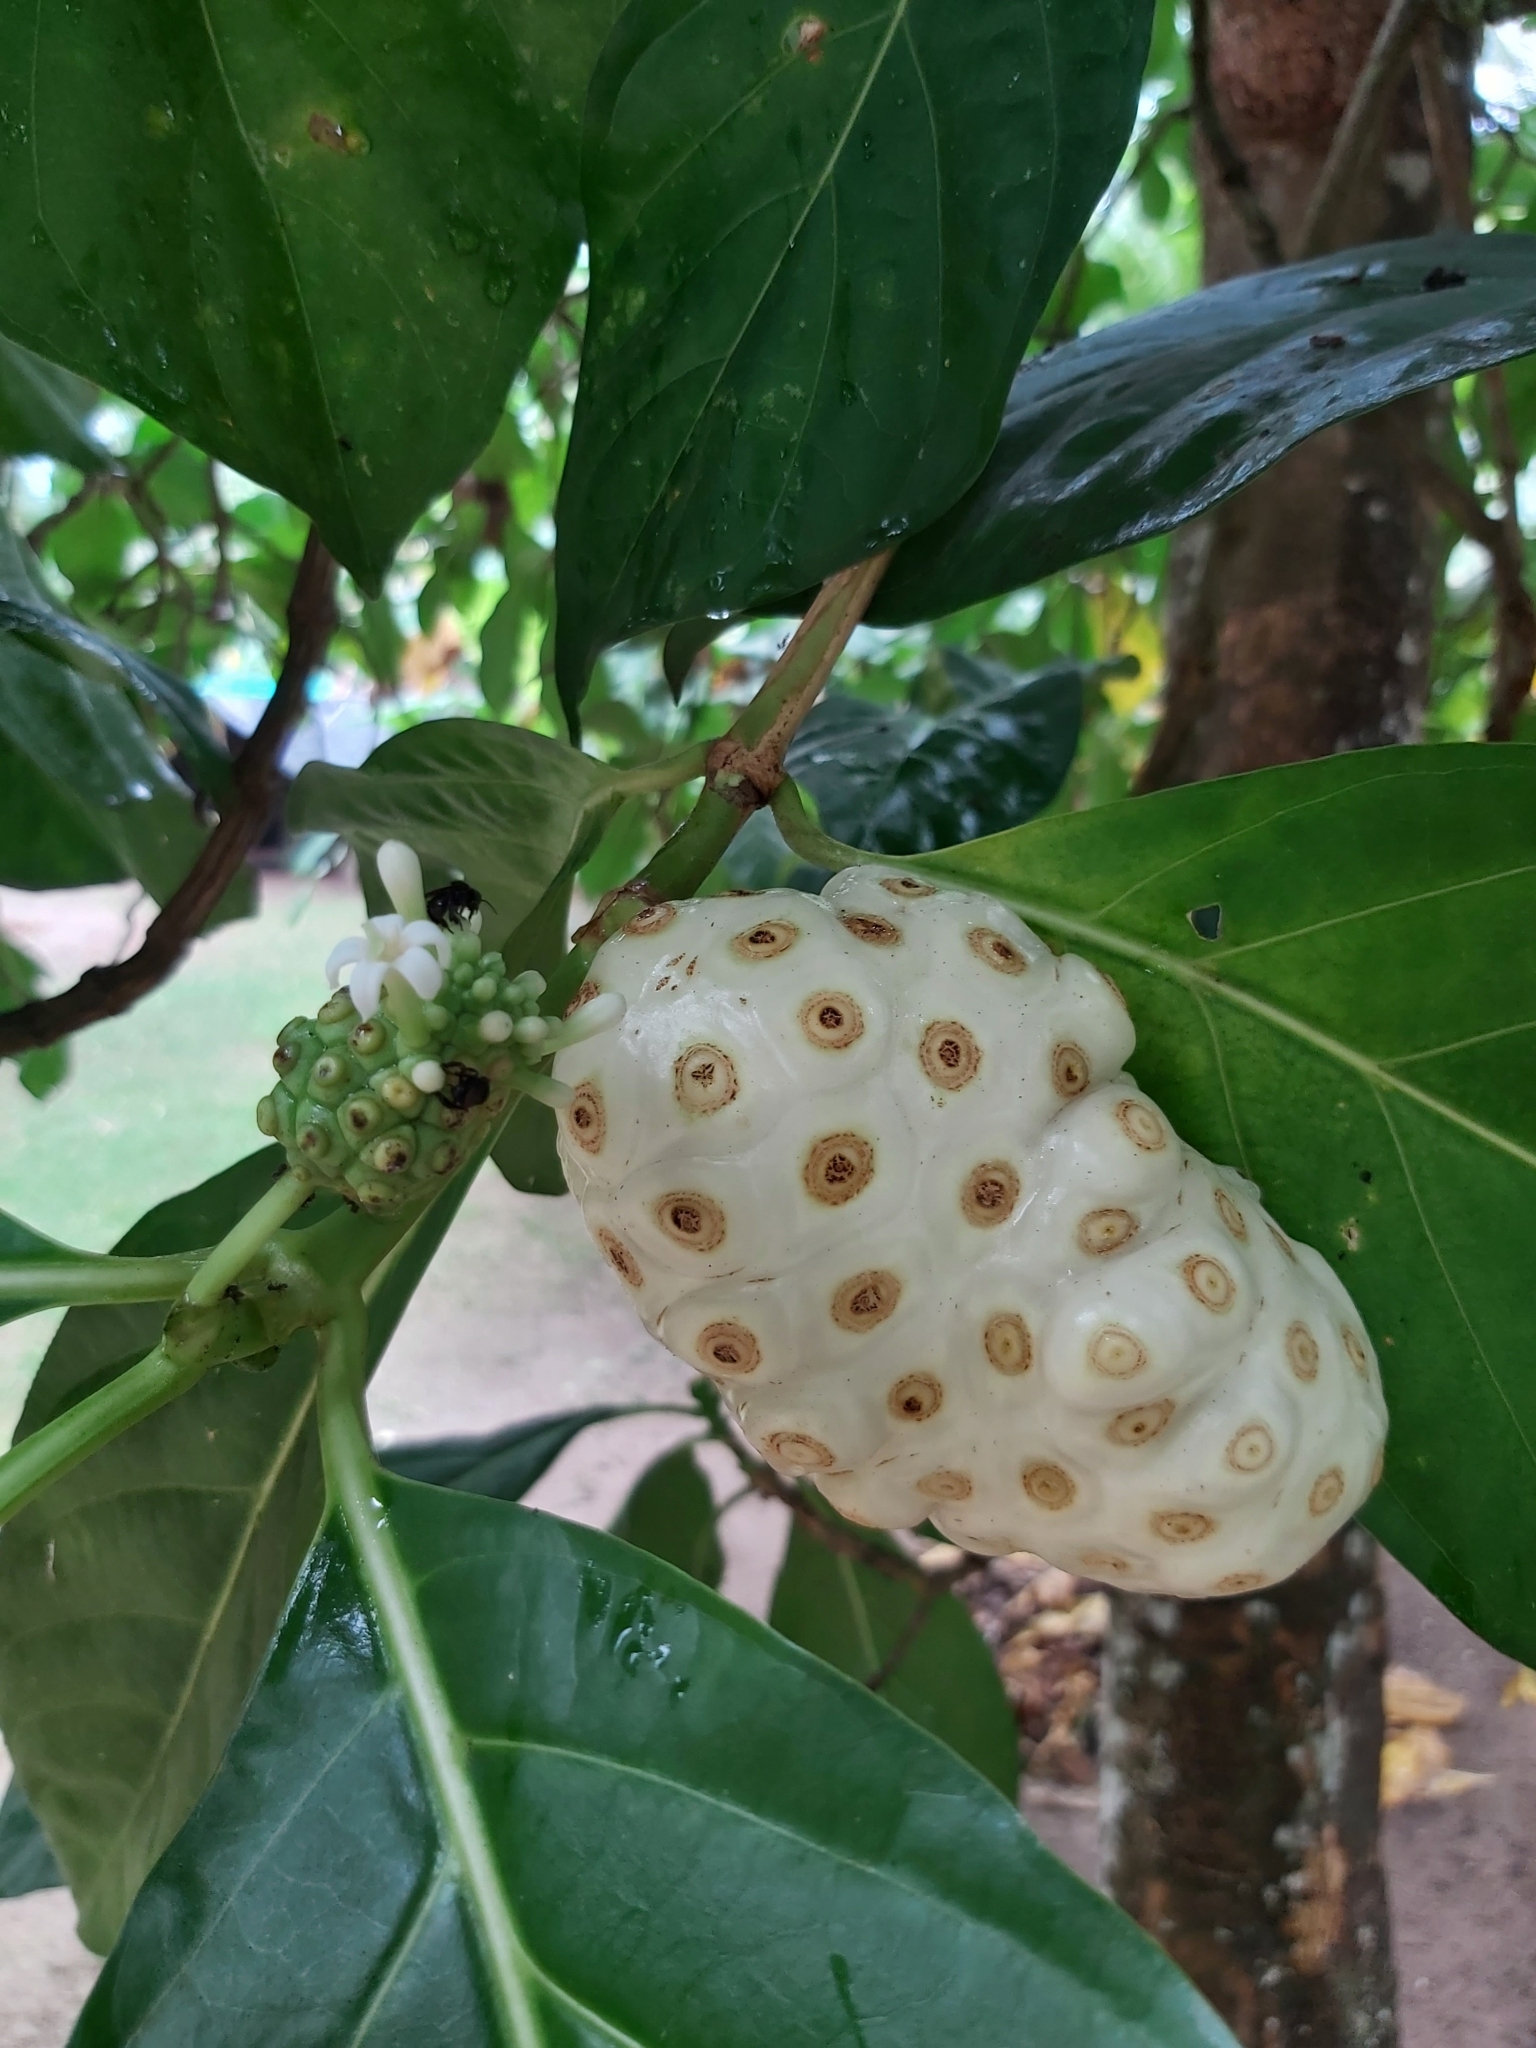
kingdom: Plantae
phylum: Tracheophyta
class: Magnoliopsida
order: Gentianales
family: Rubiaceae
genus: Morinda
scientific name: Morinda citrifolia
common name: Indian-mulberry
